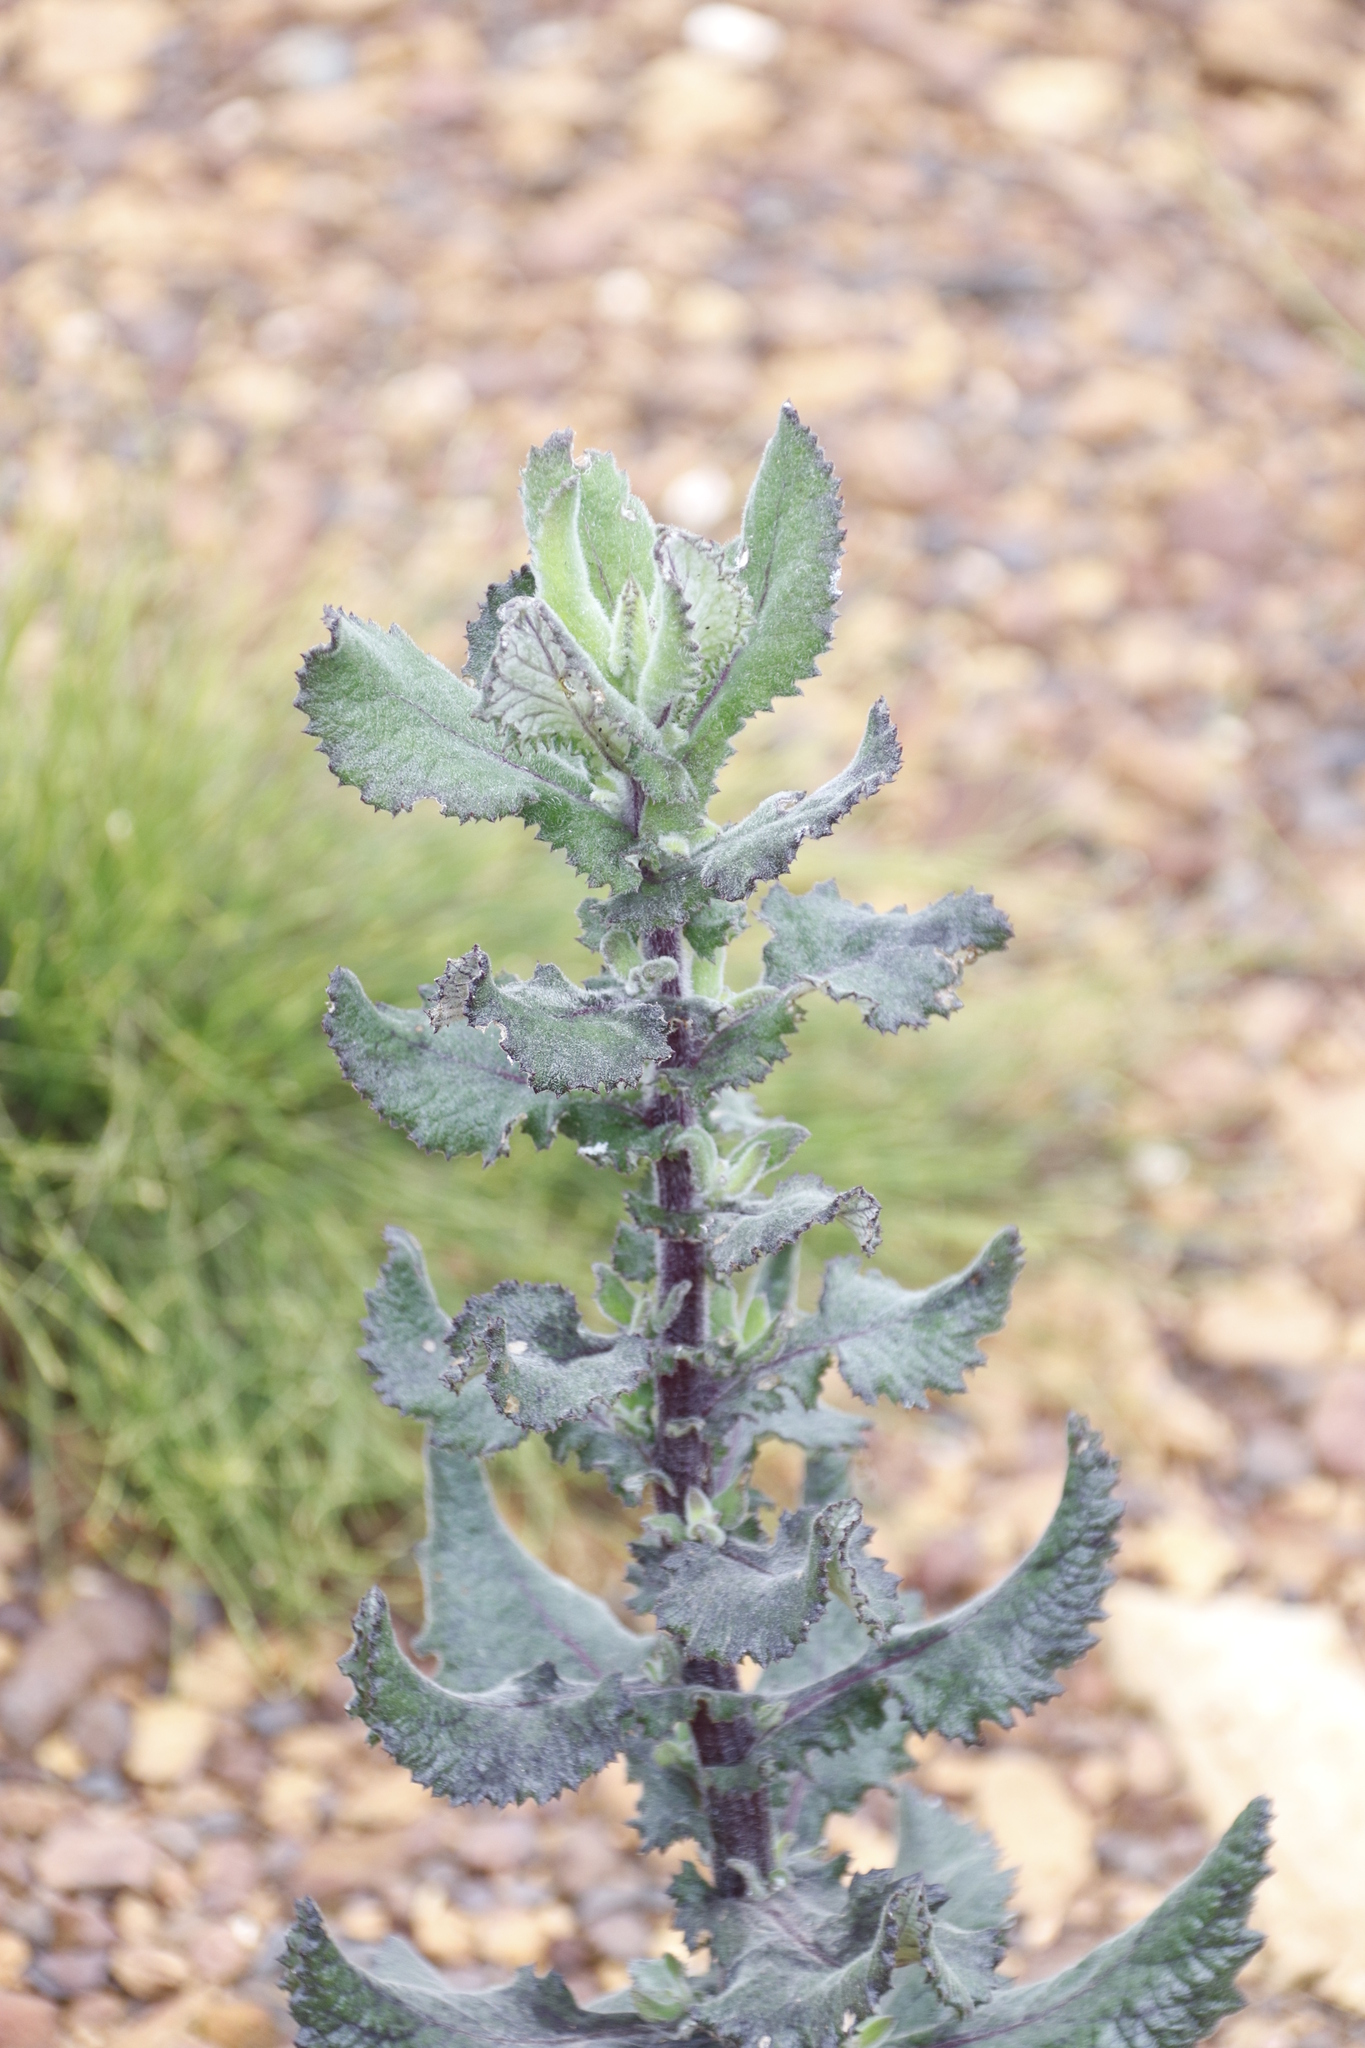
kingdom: Plantae
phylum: Tracheophyta
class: Magnoliopsida
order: Asterales
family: Asteraceae
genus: Senecio
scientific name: Senecio rigidus
